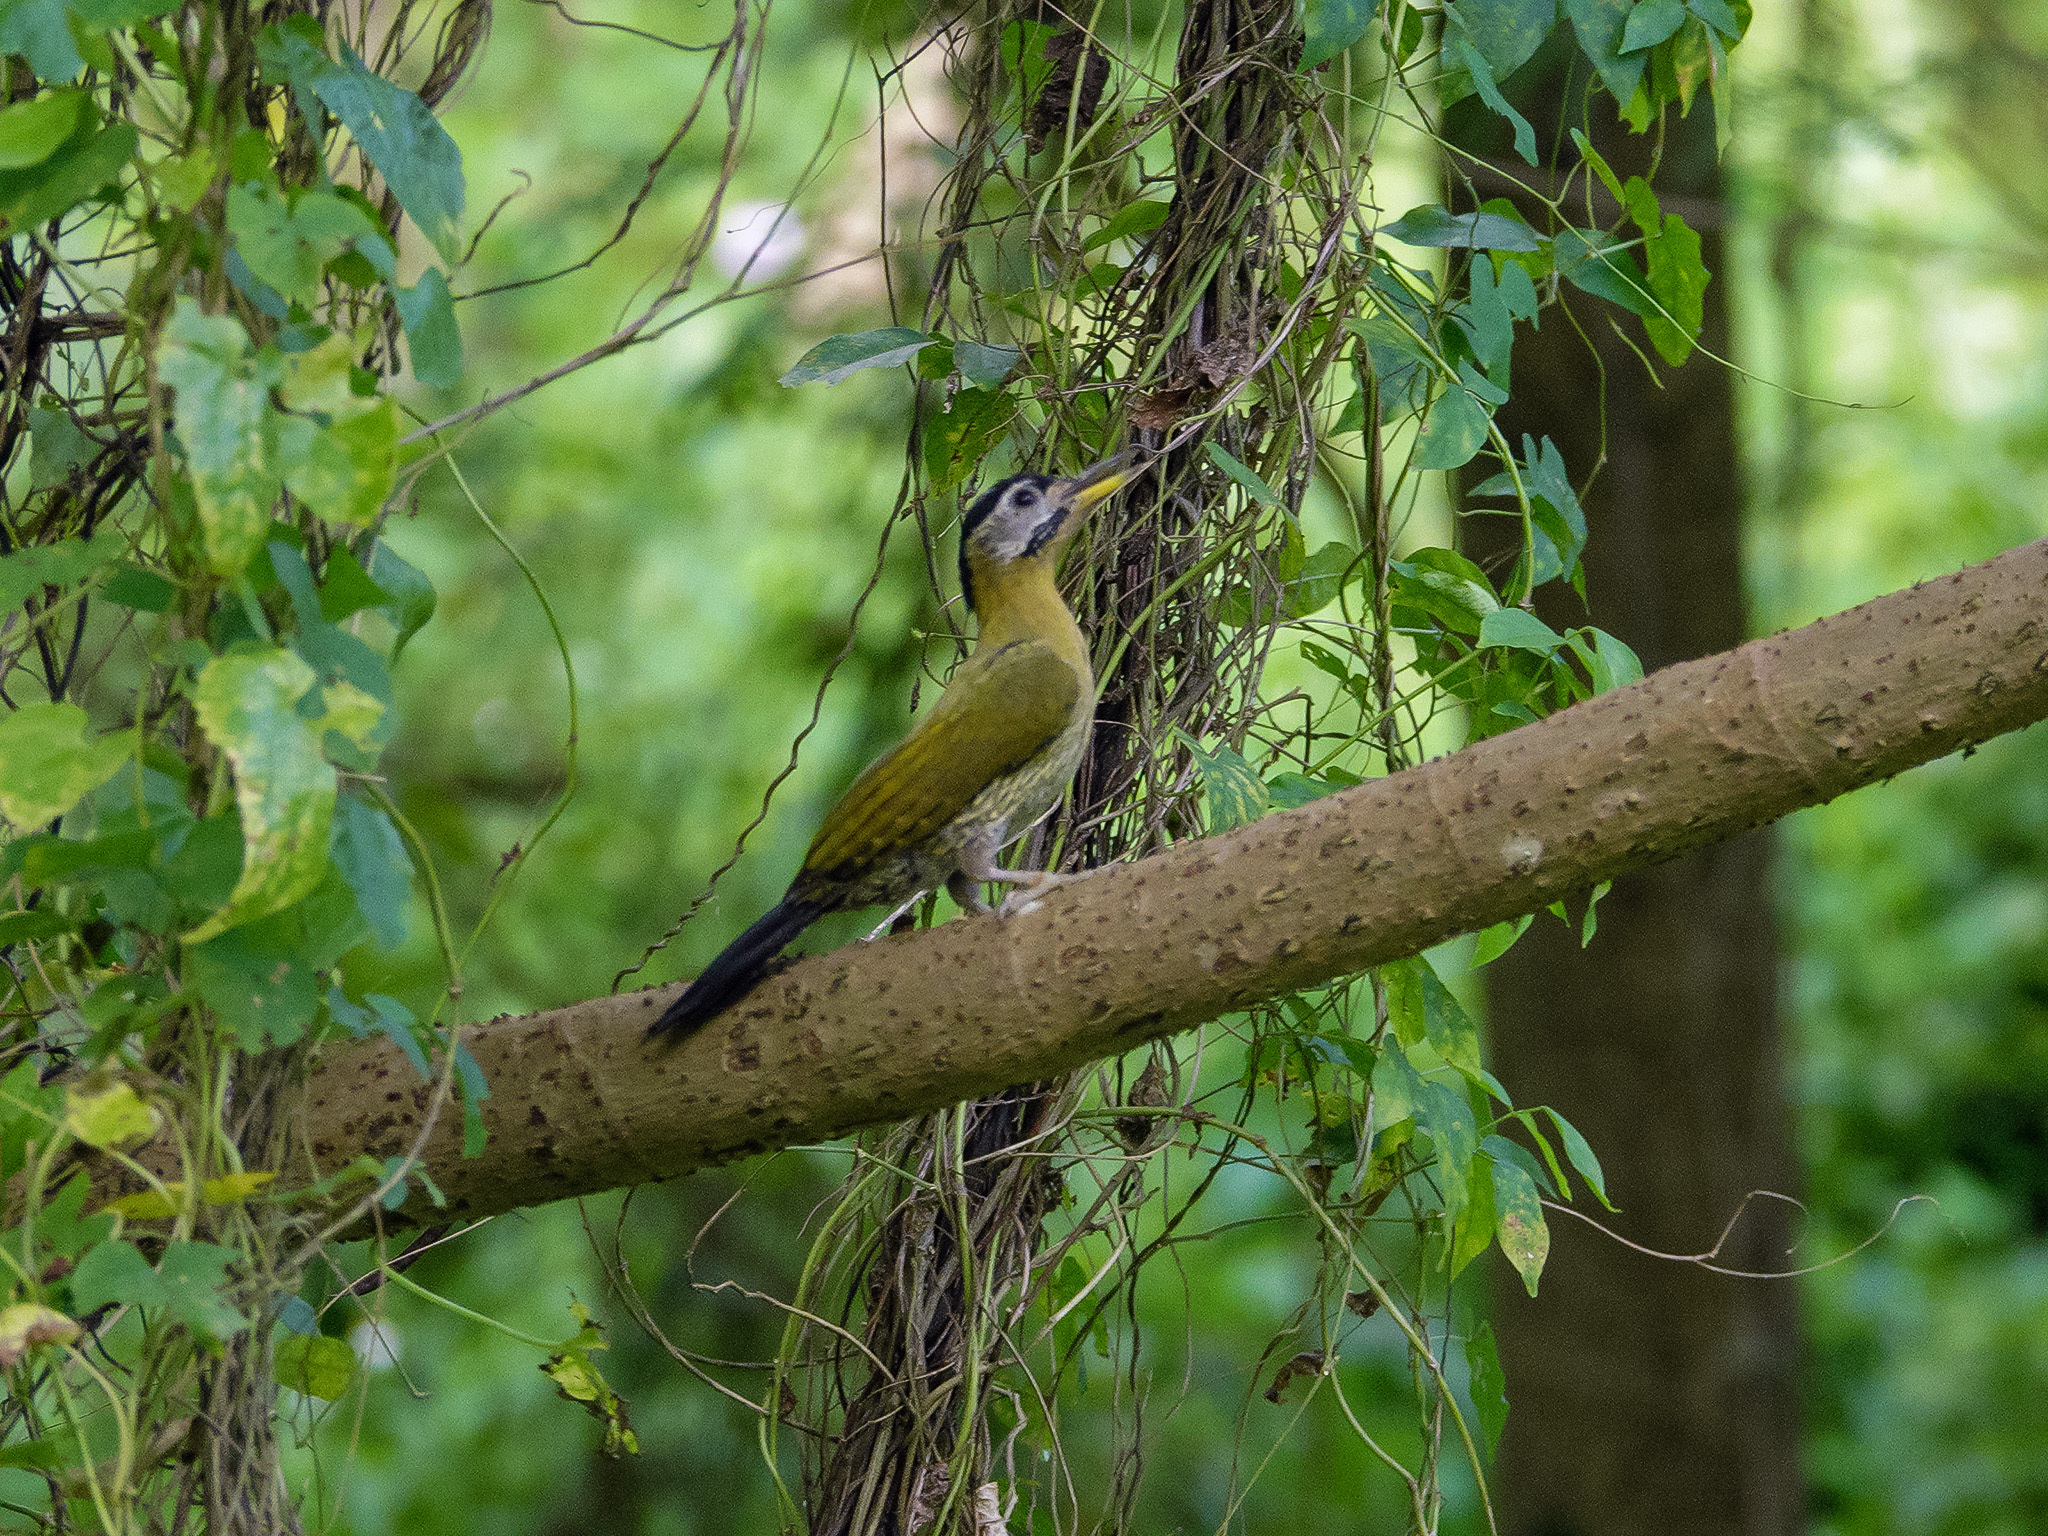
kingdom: Animalia
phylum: Chordata
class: Aves
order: Piciformes
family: Picidae
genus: Picus
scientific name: Picus vittatus
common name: Laced woodpecker
